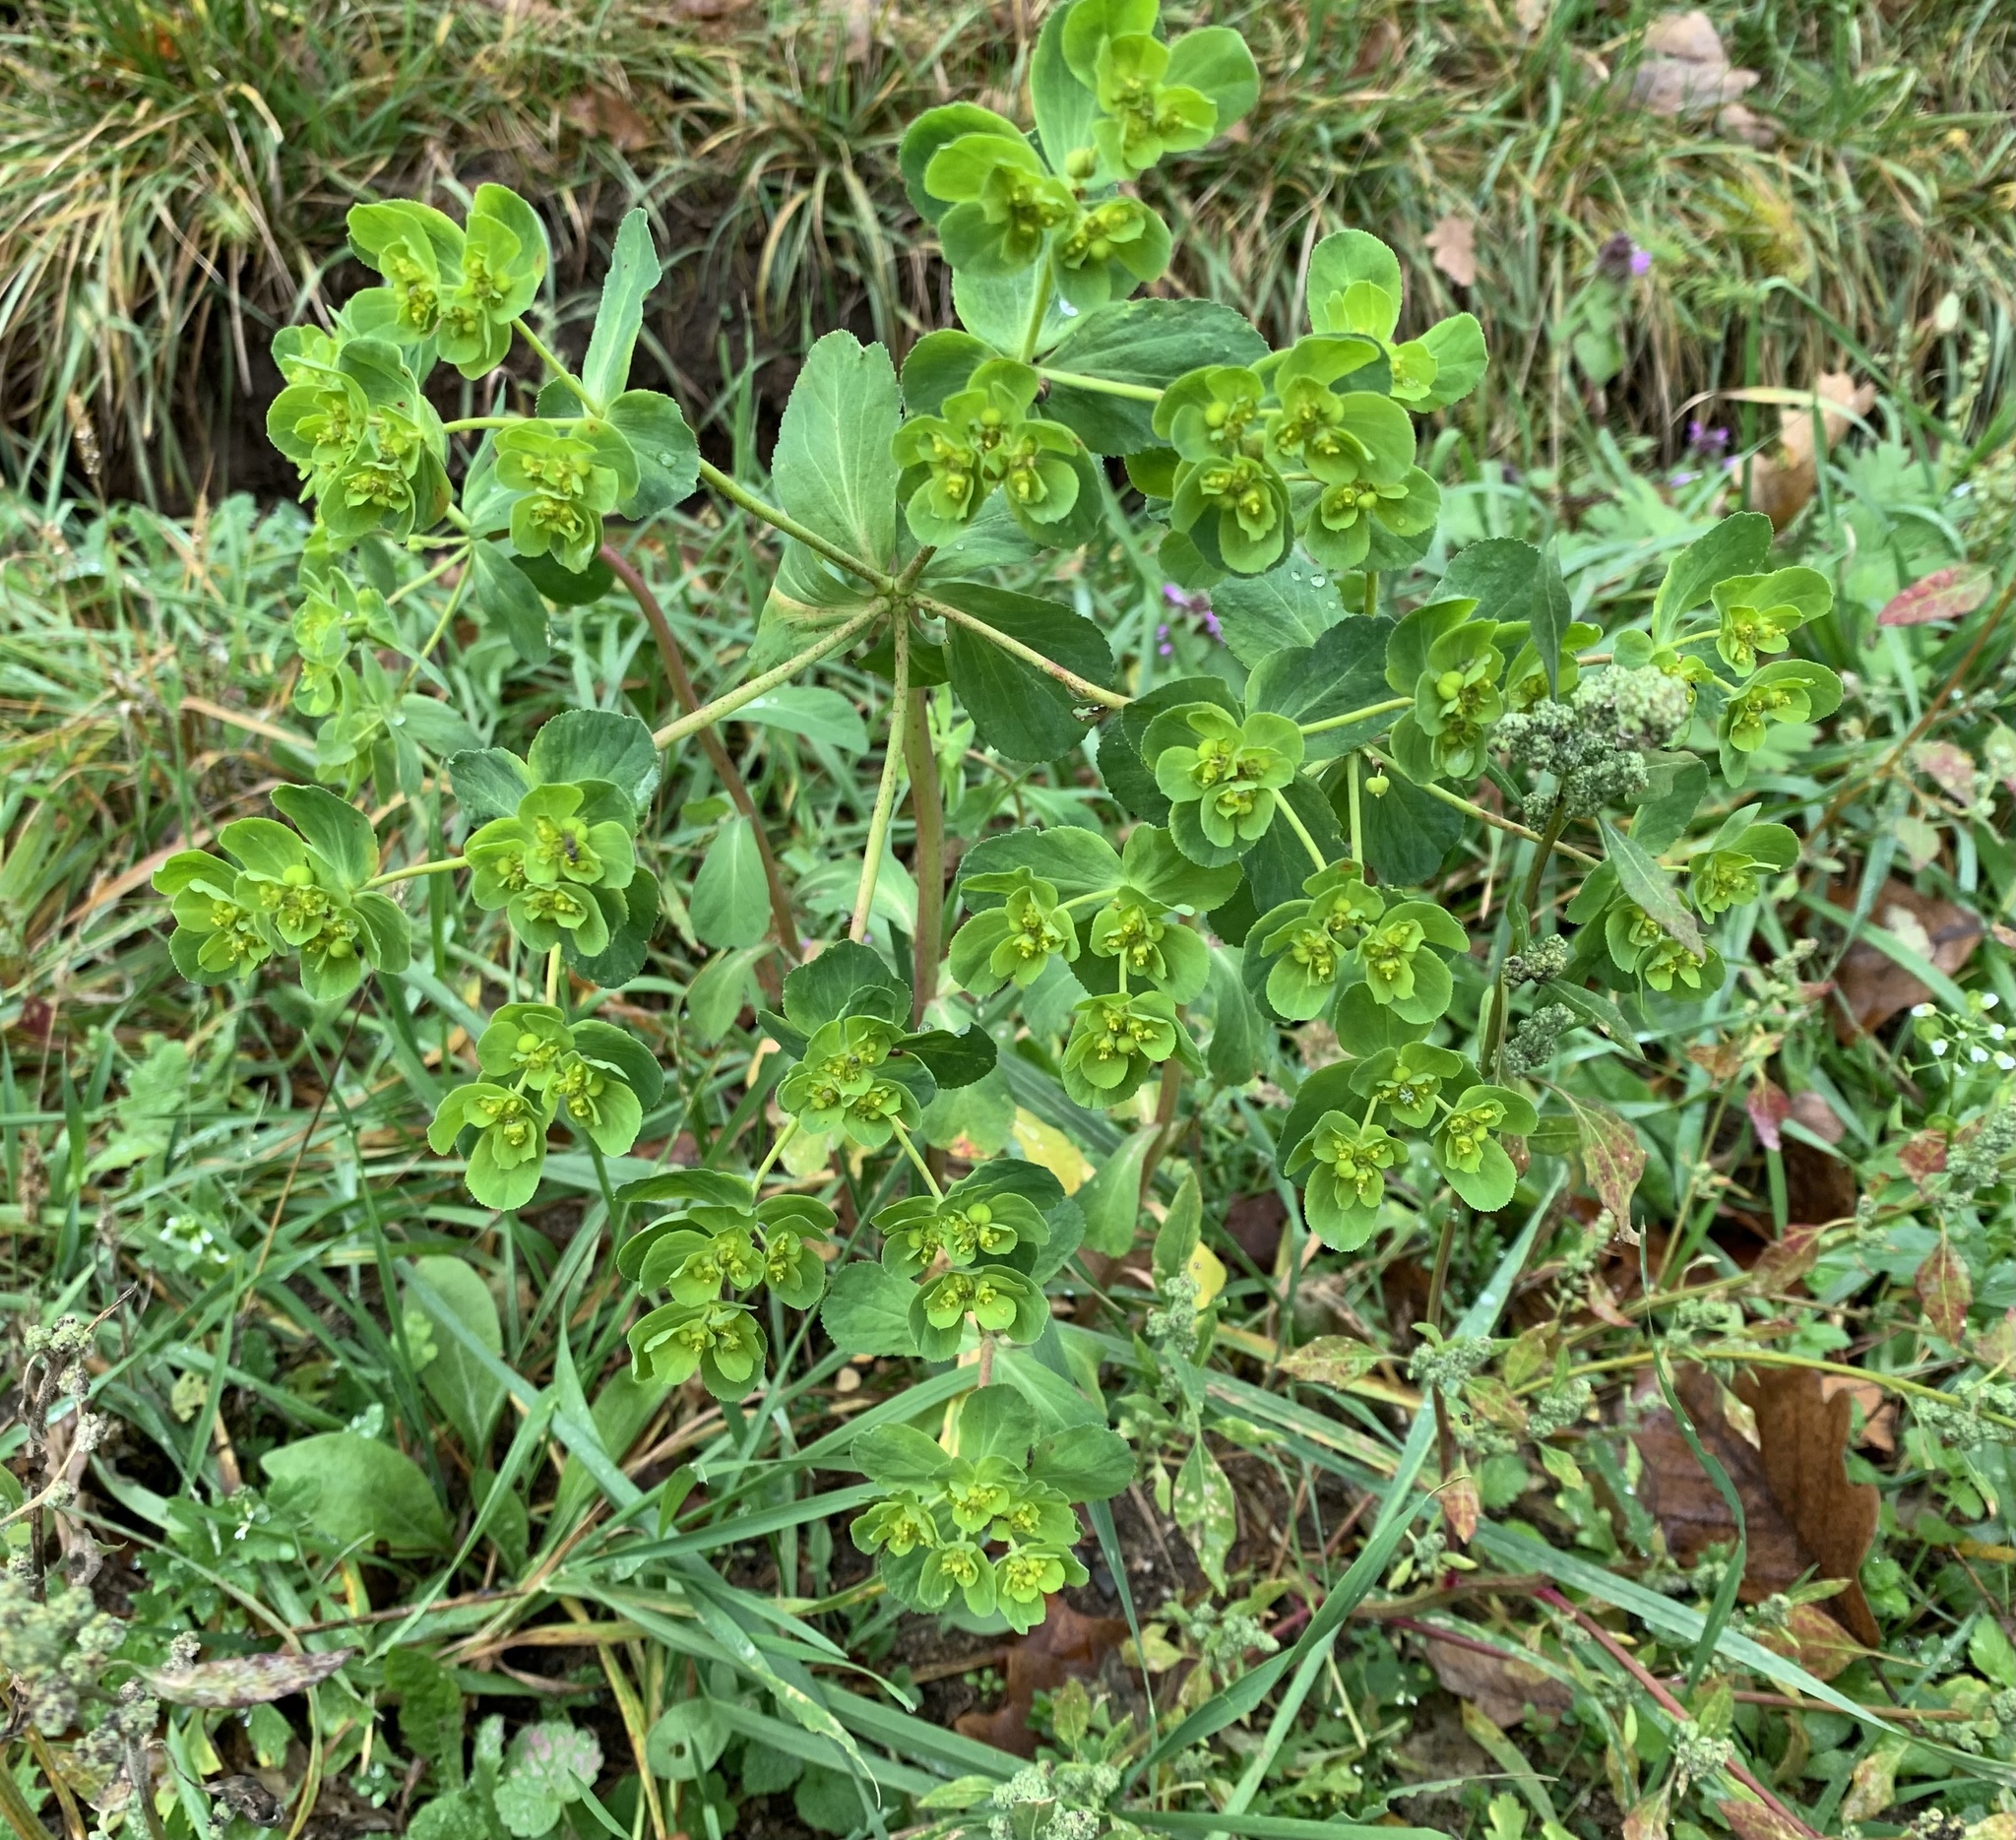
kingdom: Plantae
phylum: Tracheophyta
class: Magnoliopsida
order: Malpighiales
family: Euphorbiaceae
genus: Euphorbia
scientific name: Euphorbia helioscopia
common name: Sun spurge
